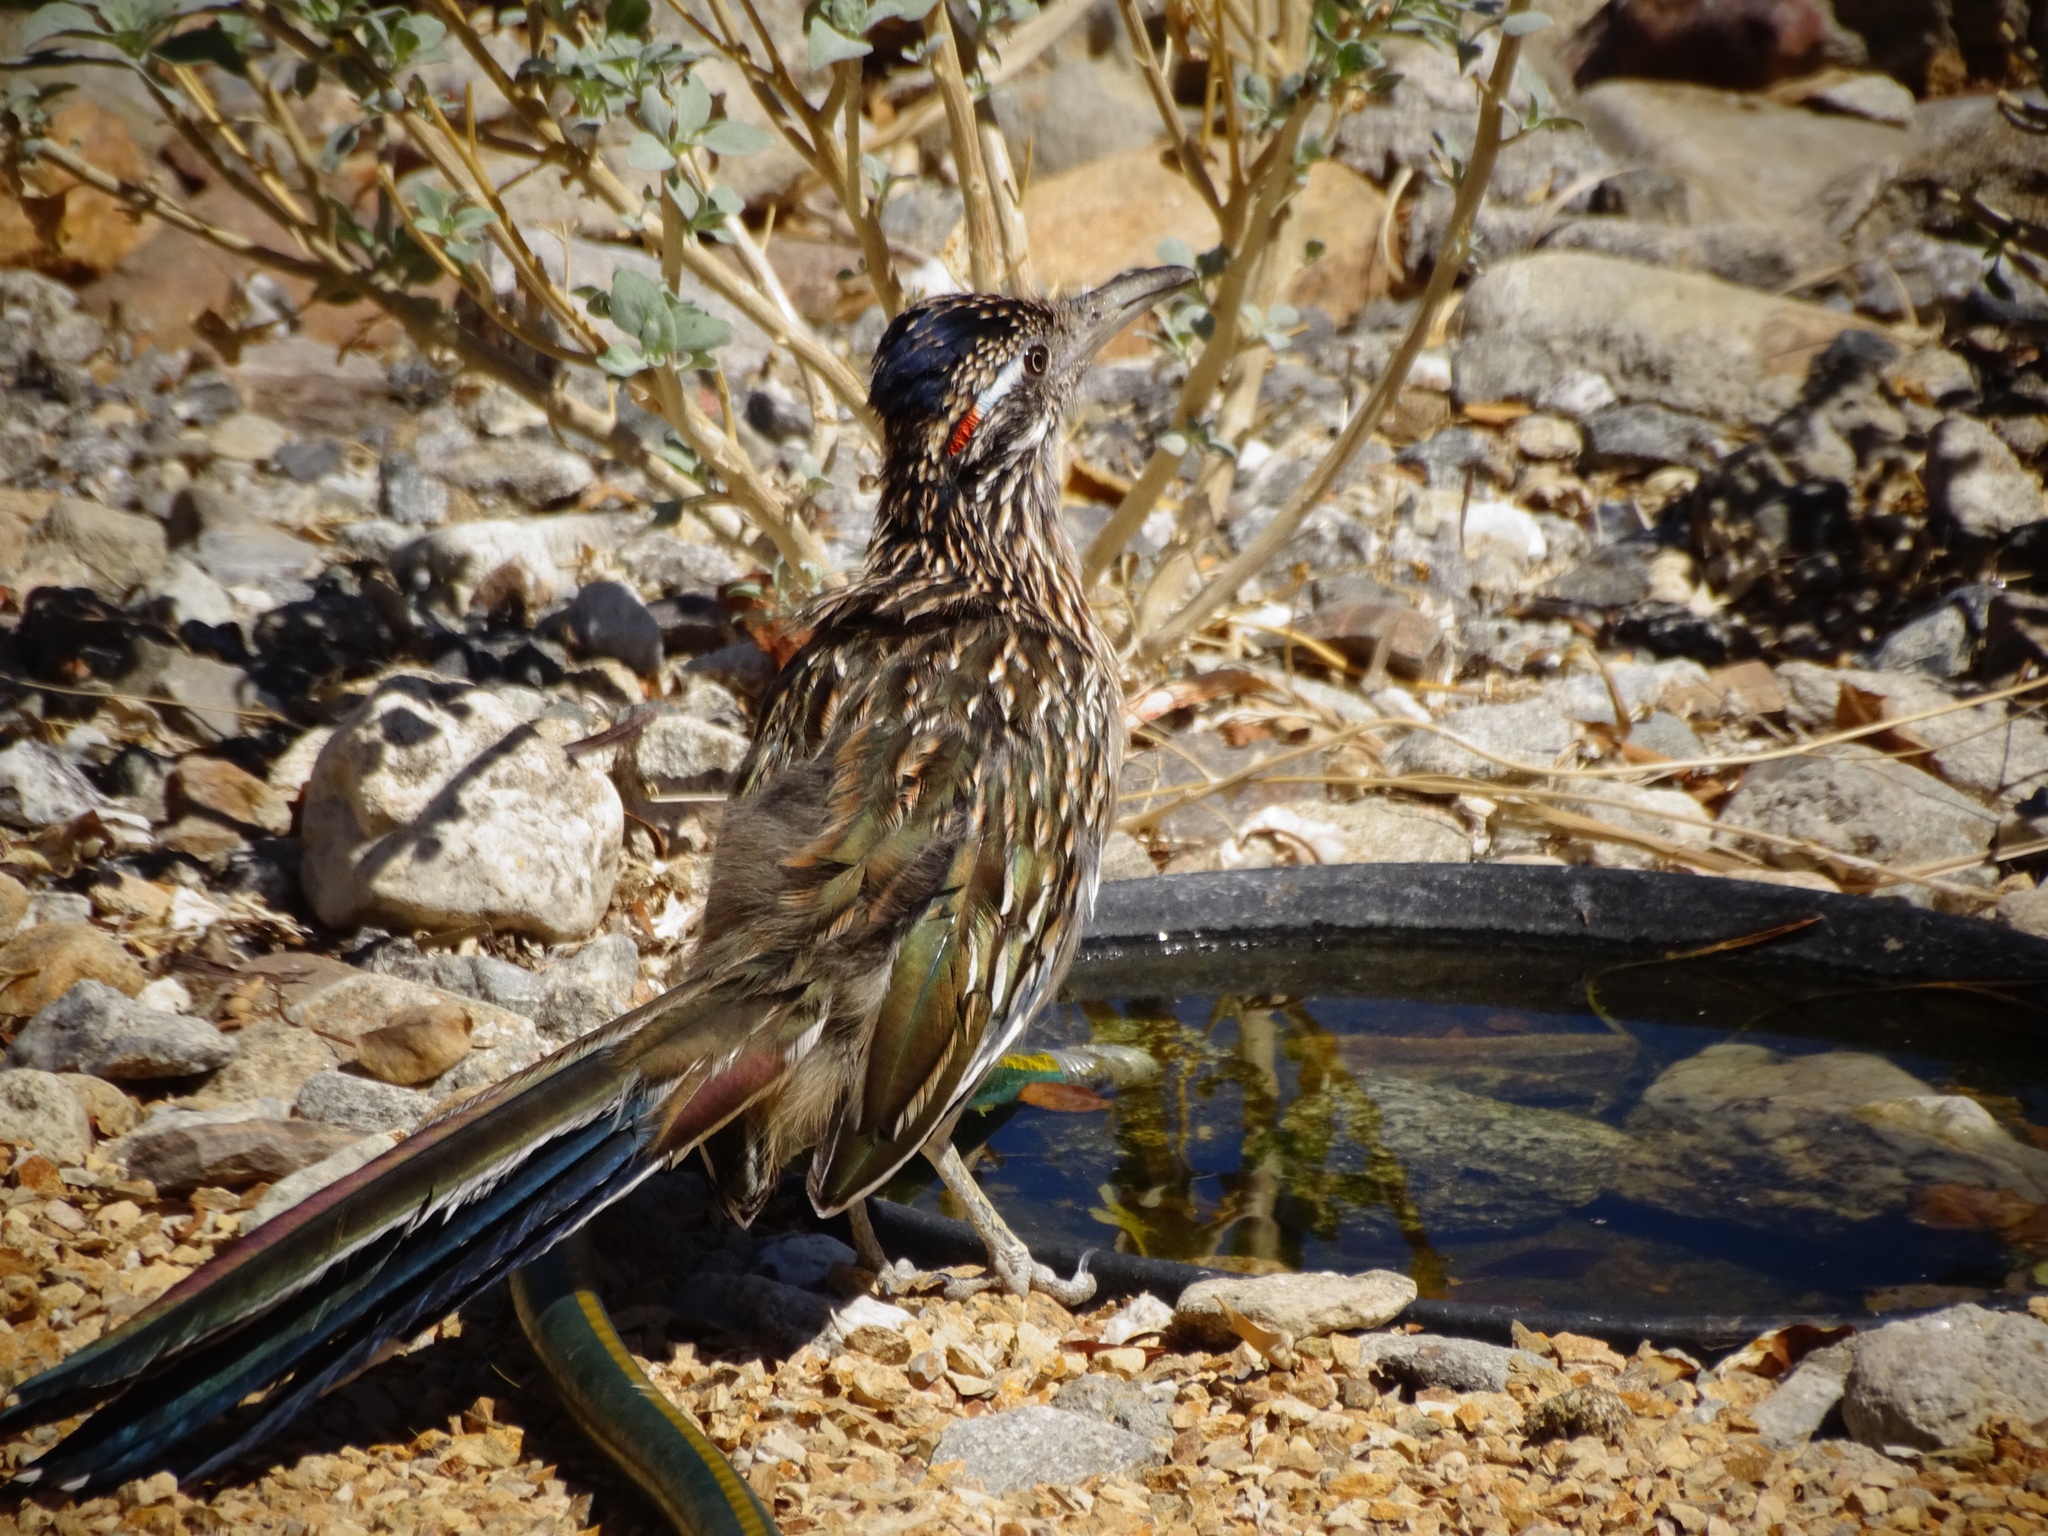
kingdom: Animalia
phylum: Chordata
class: Aves
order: Cuculiformes
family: Cuculidae
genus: Geococcyx
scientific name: Geococcyx californianus
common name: Greater roadrunner
